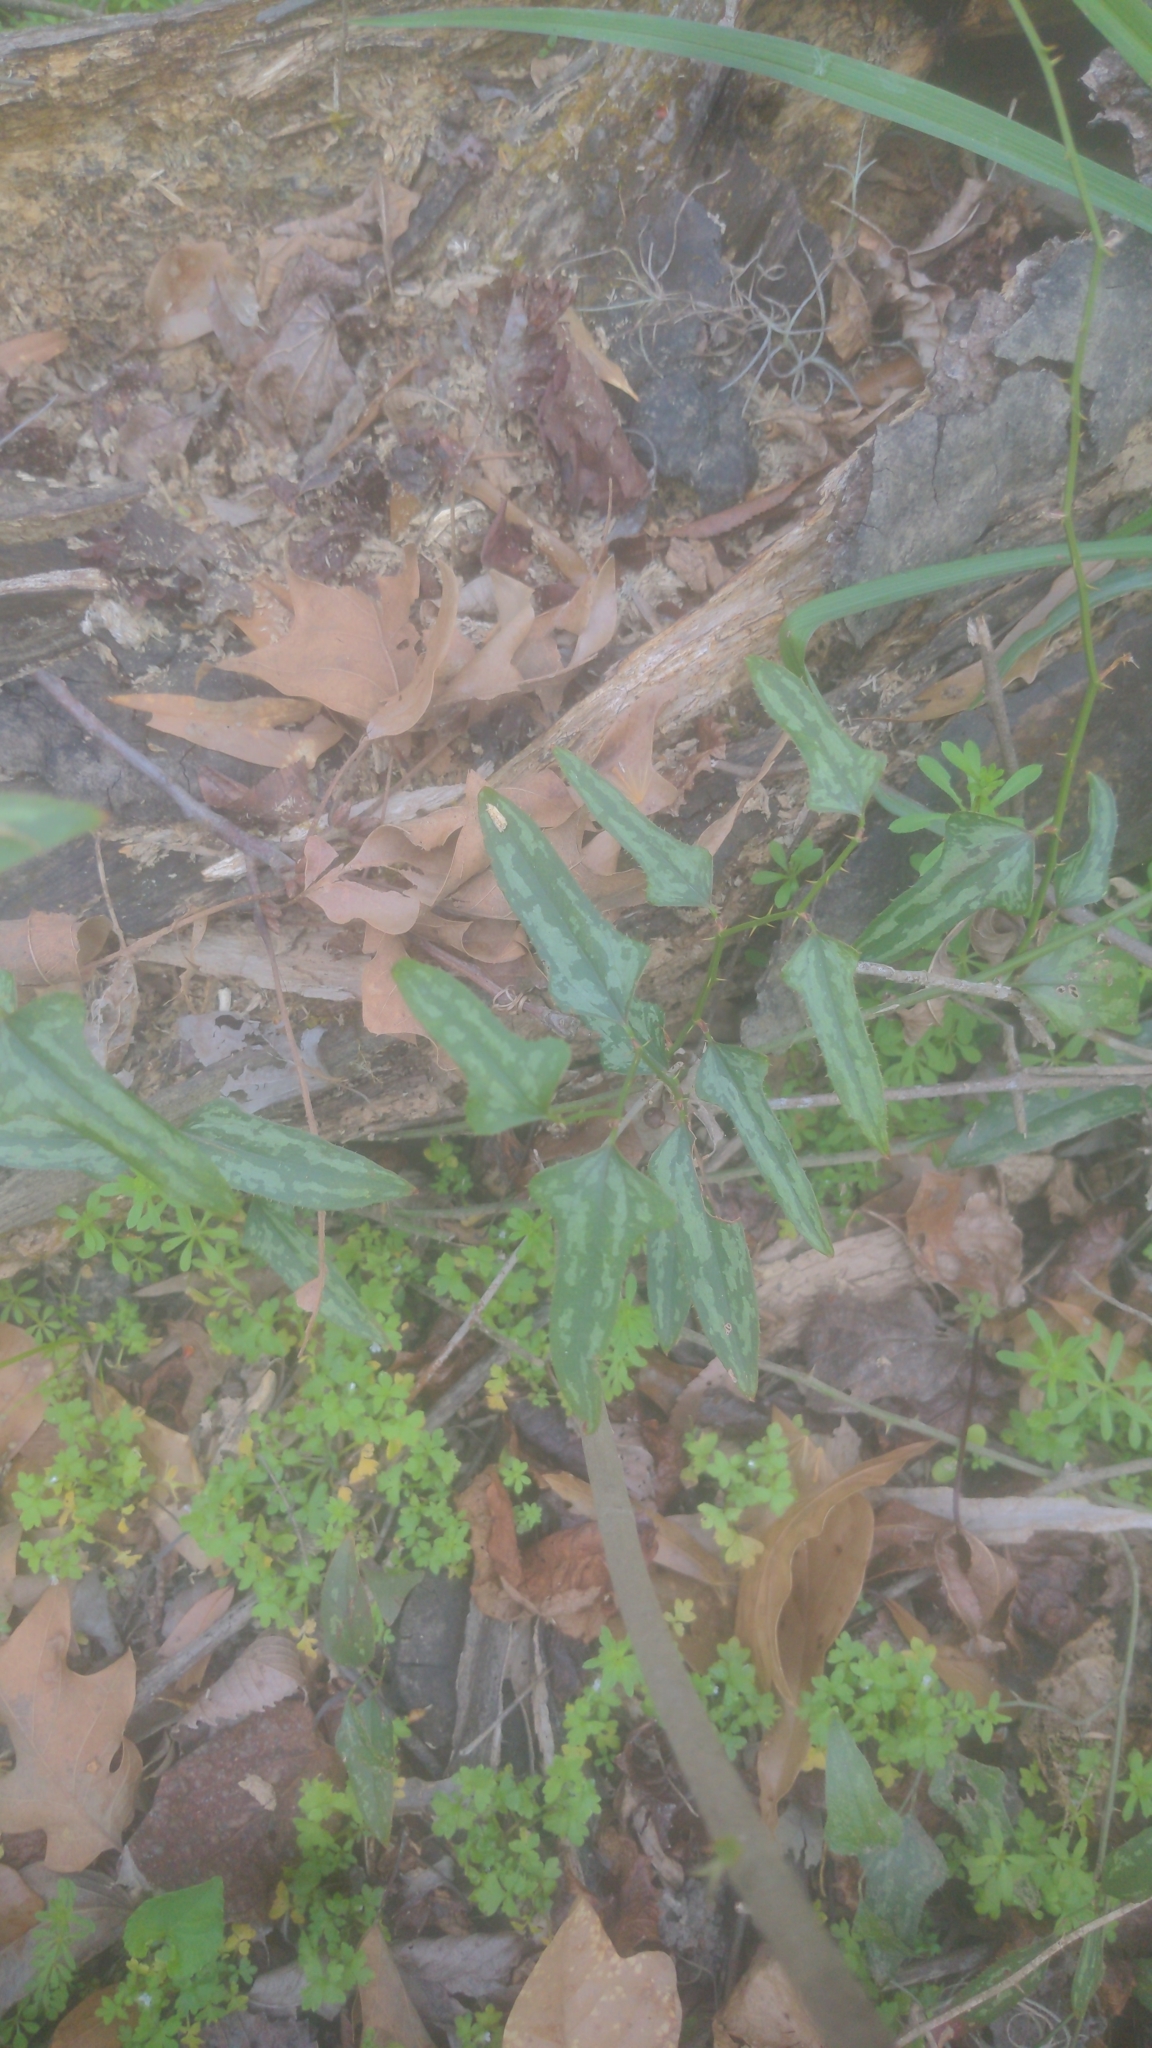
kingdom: Plantae
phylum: Tracheophyta
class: Liliopsida
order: Liliales
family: Smilacaceae
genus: Smilax
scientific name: Smilax bona-nox
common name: Catbrier
